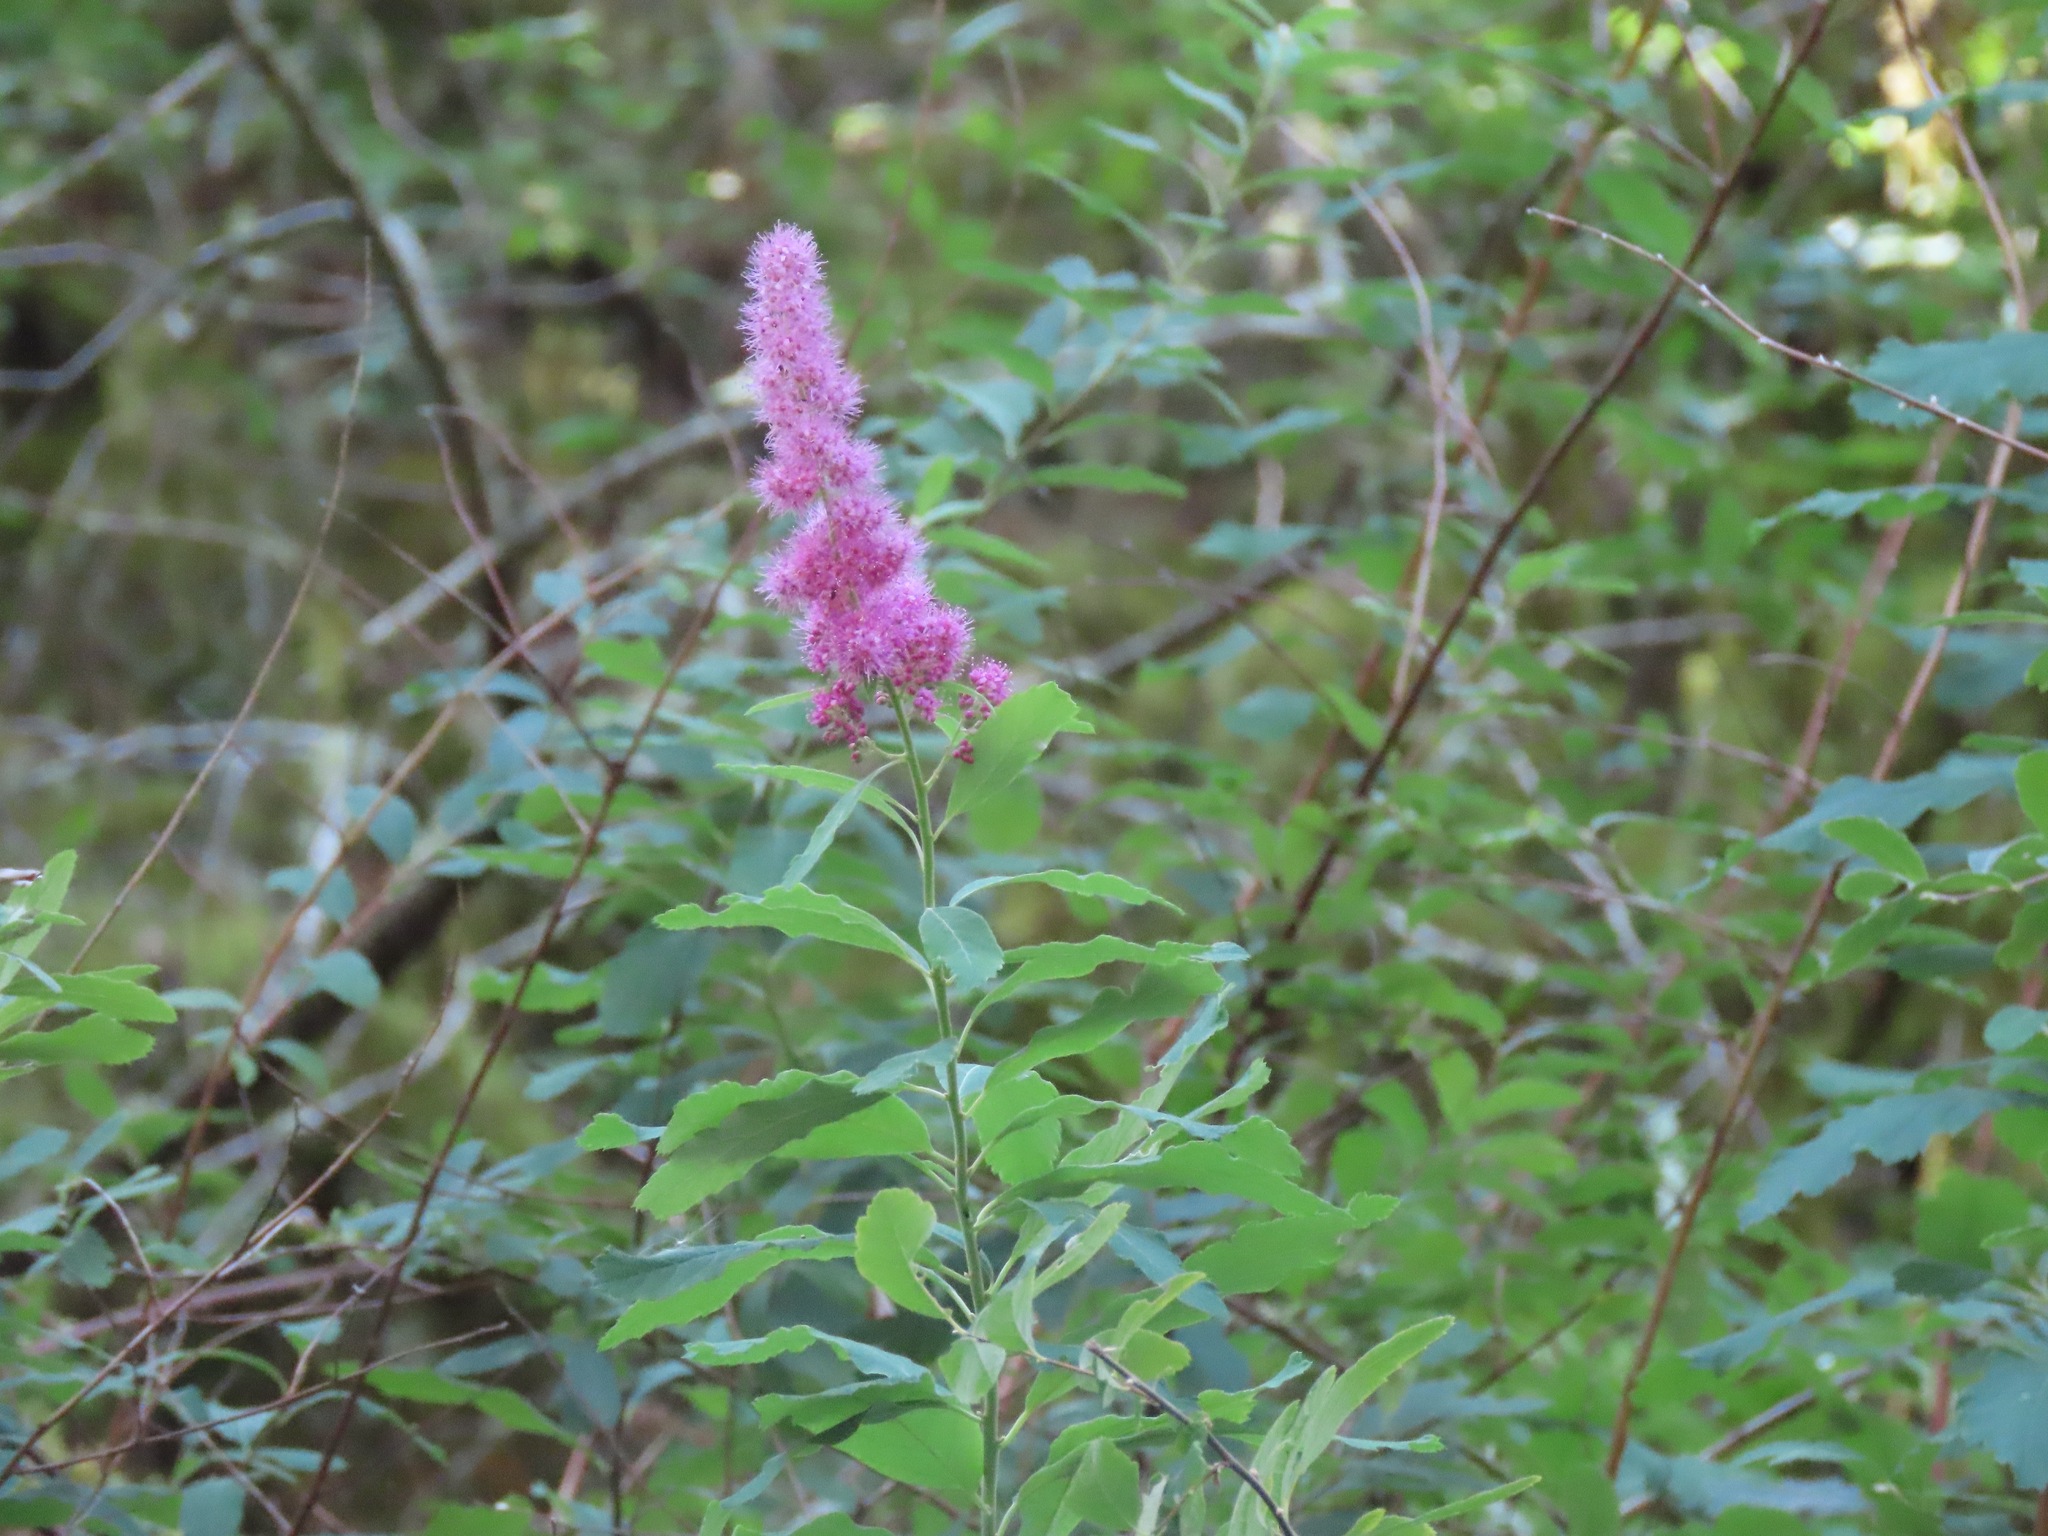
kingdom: Plantae
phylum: Tracheophyta
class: Magnoliopsida
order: Rosales
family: Rosaceae
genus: Spiraea
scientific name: Spiraea douglasii
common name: Steeplebush
